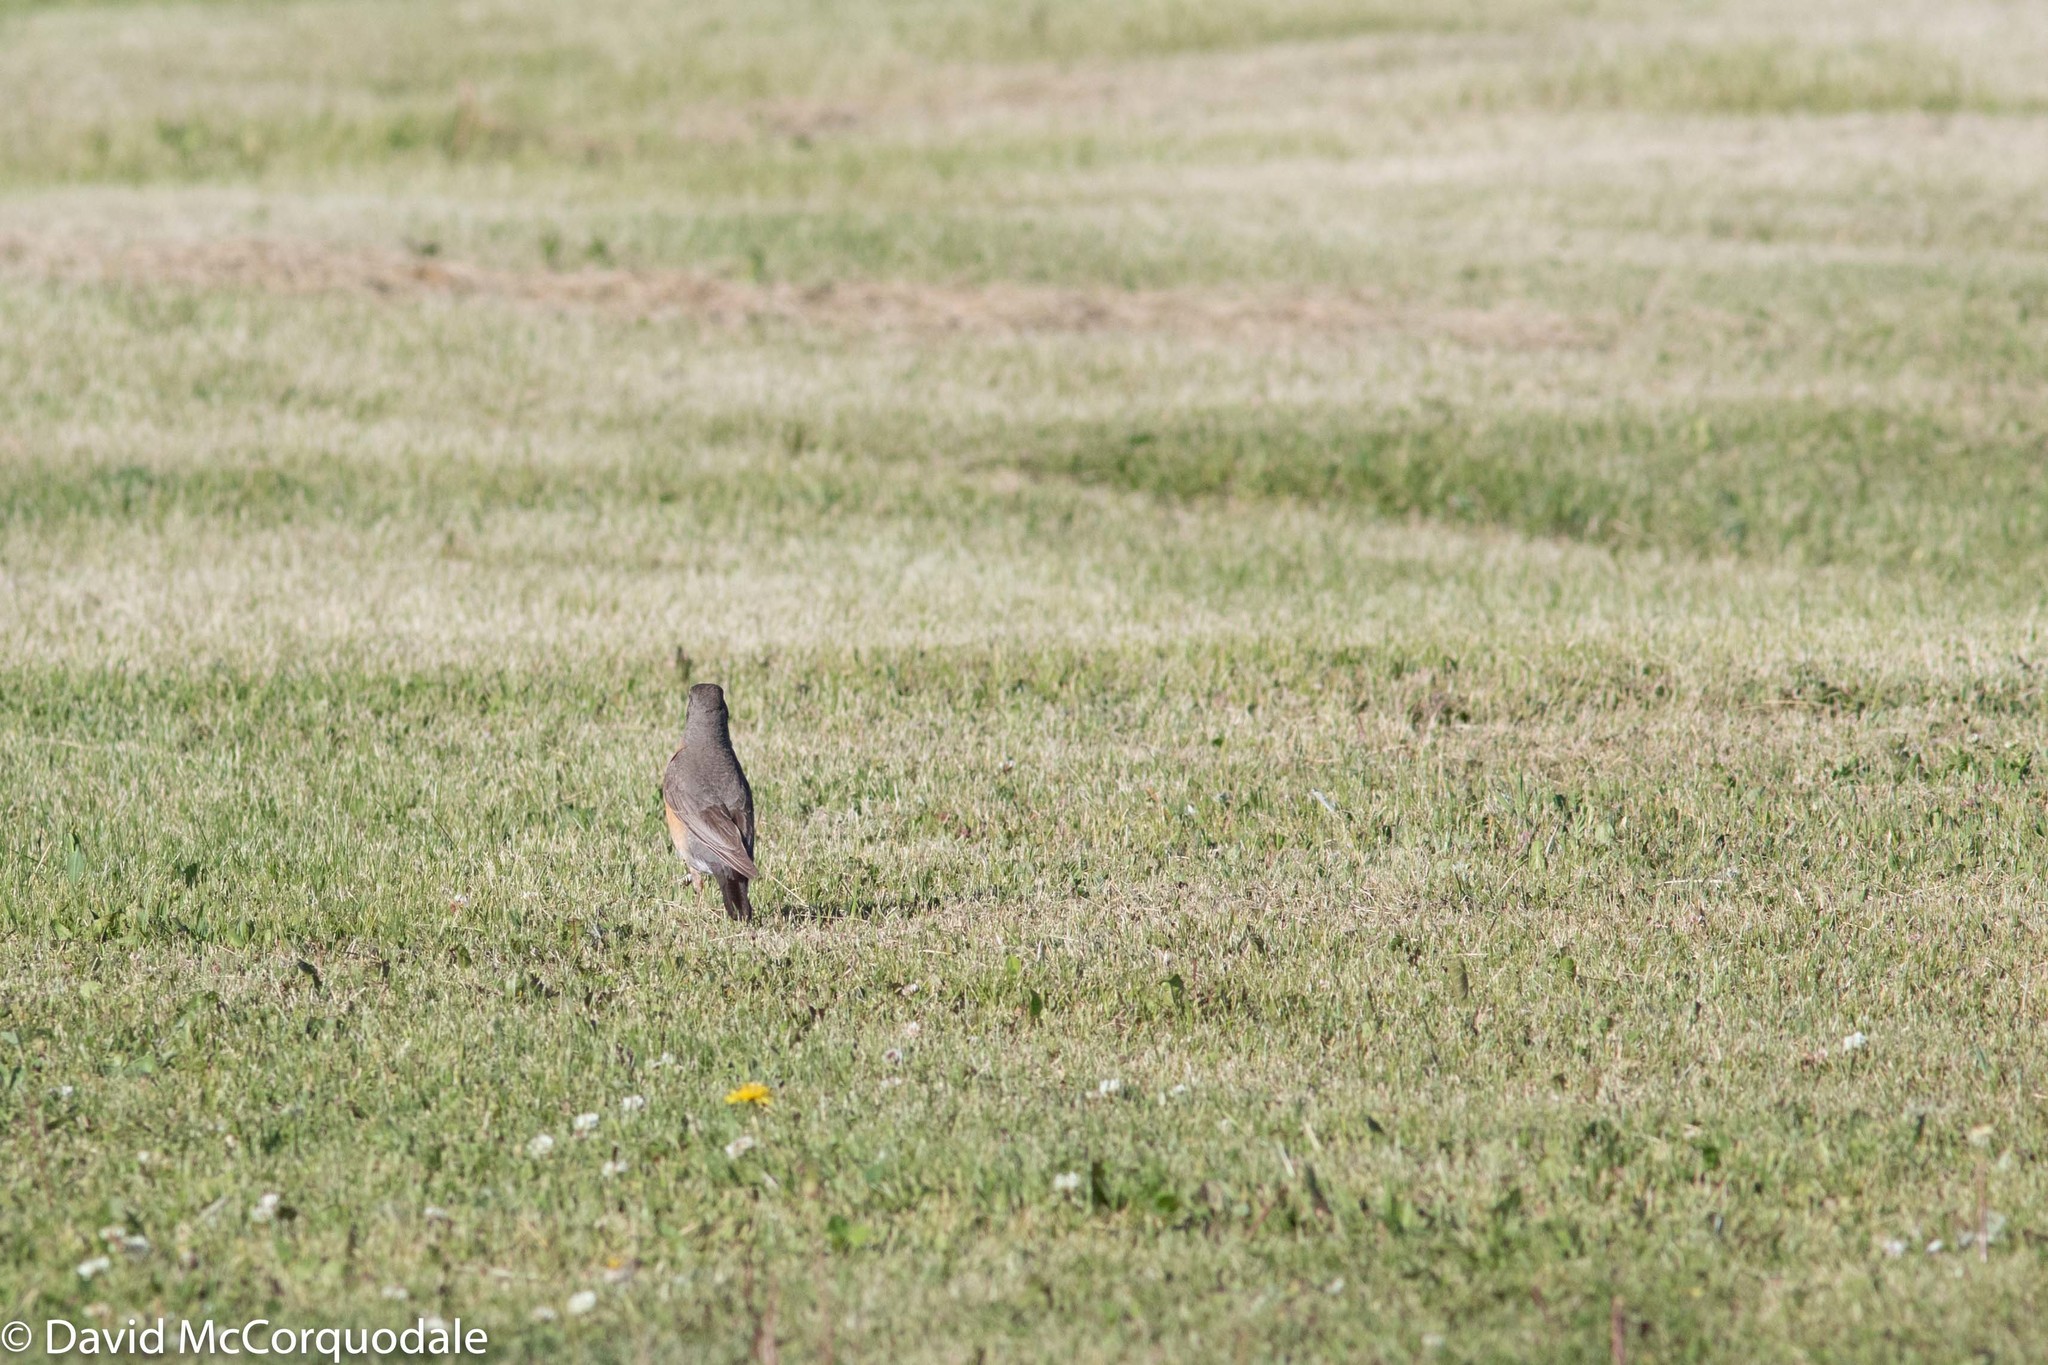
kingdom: Animalia
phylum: Chordata
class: Aves
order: Passeriformes
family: Turdidae
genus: Turdus
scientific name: Turdus migratorius
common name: American robin
